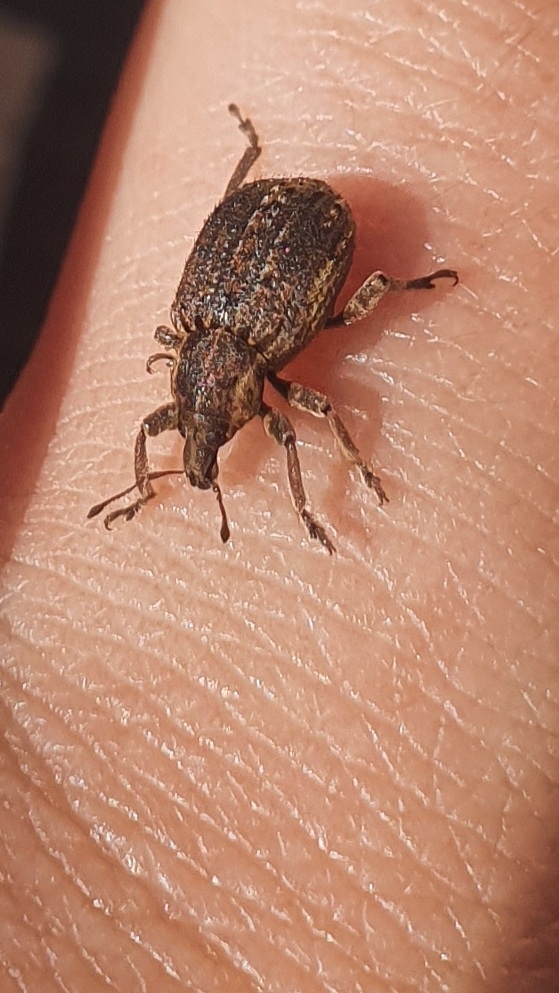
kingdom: Animalia
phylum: Arthropoda
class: Insecta
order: Coleoptera
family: Curculionidae
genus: Brachypera
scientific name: Brachypera zoilus
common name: Clover leaf weevil
